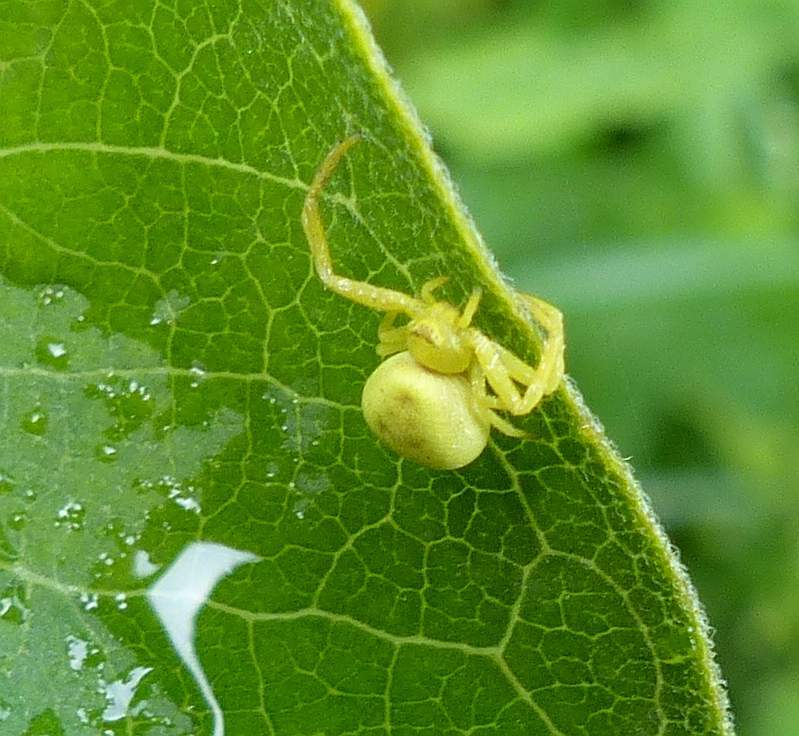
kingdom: Animalia
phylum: Arthropoda
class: Arachnida
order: Araneae
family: Thomisidae
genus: Misumena
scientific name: Misumena vatia
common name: Goldenrod crab spider
